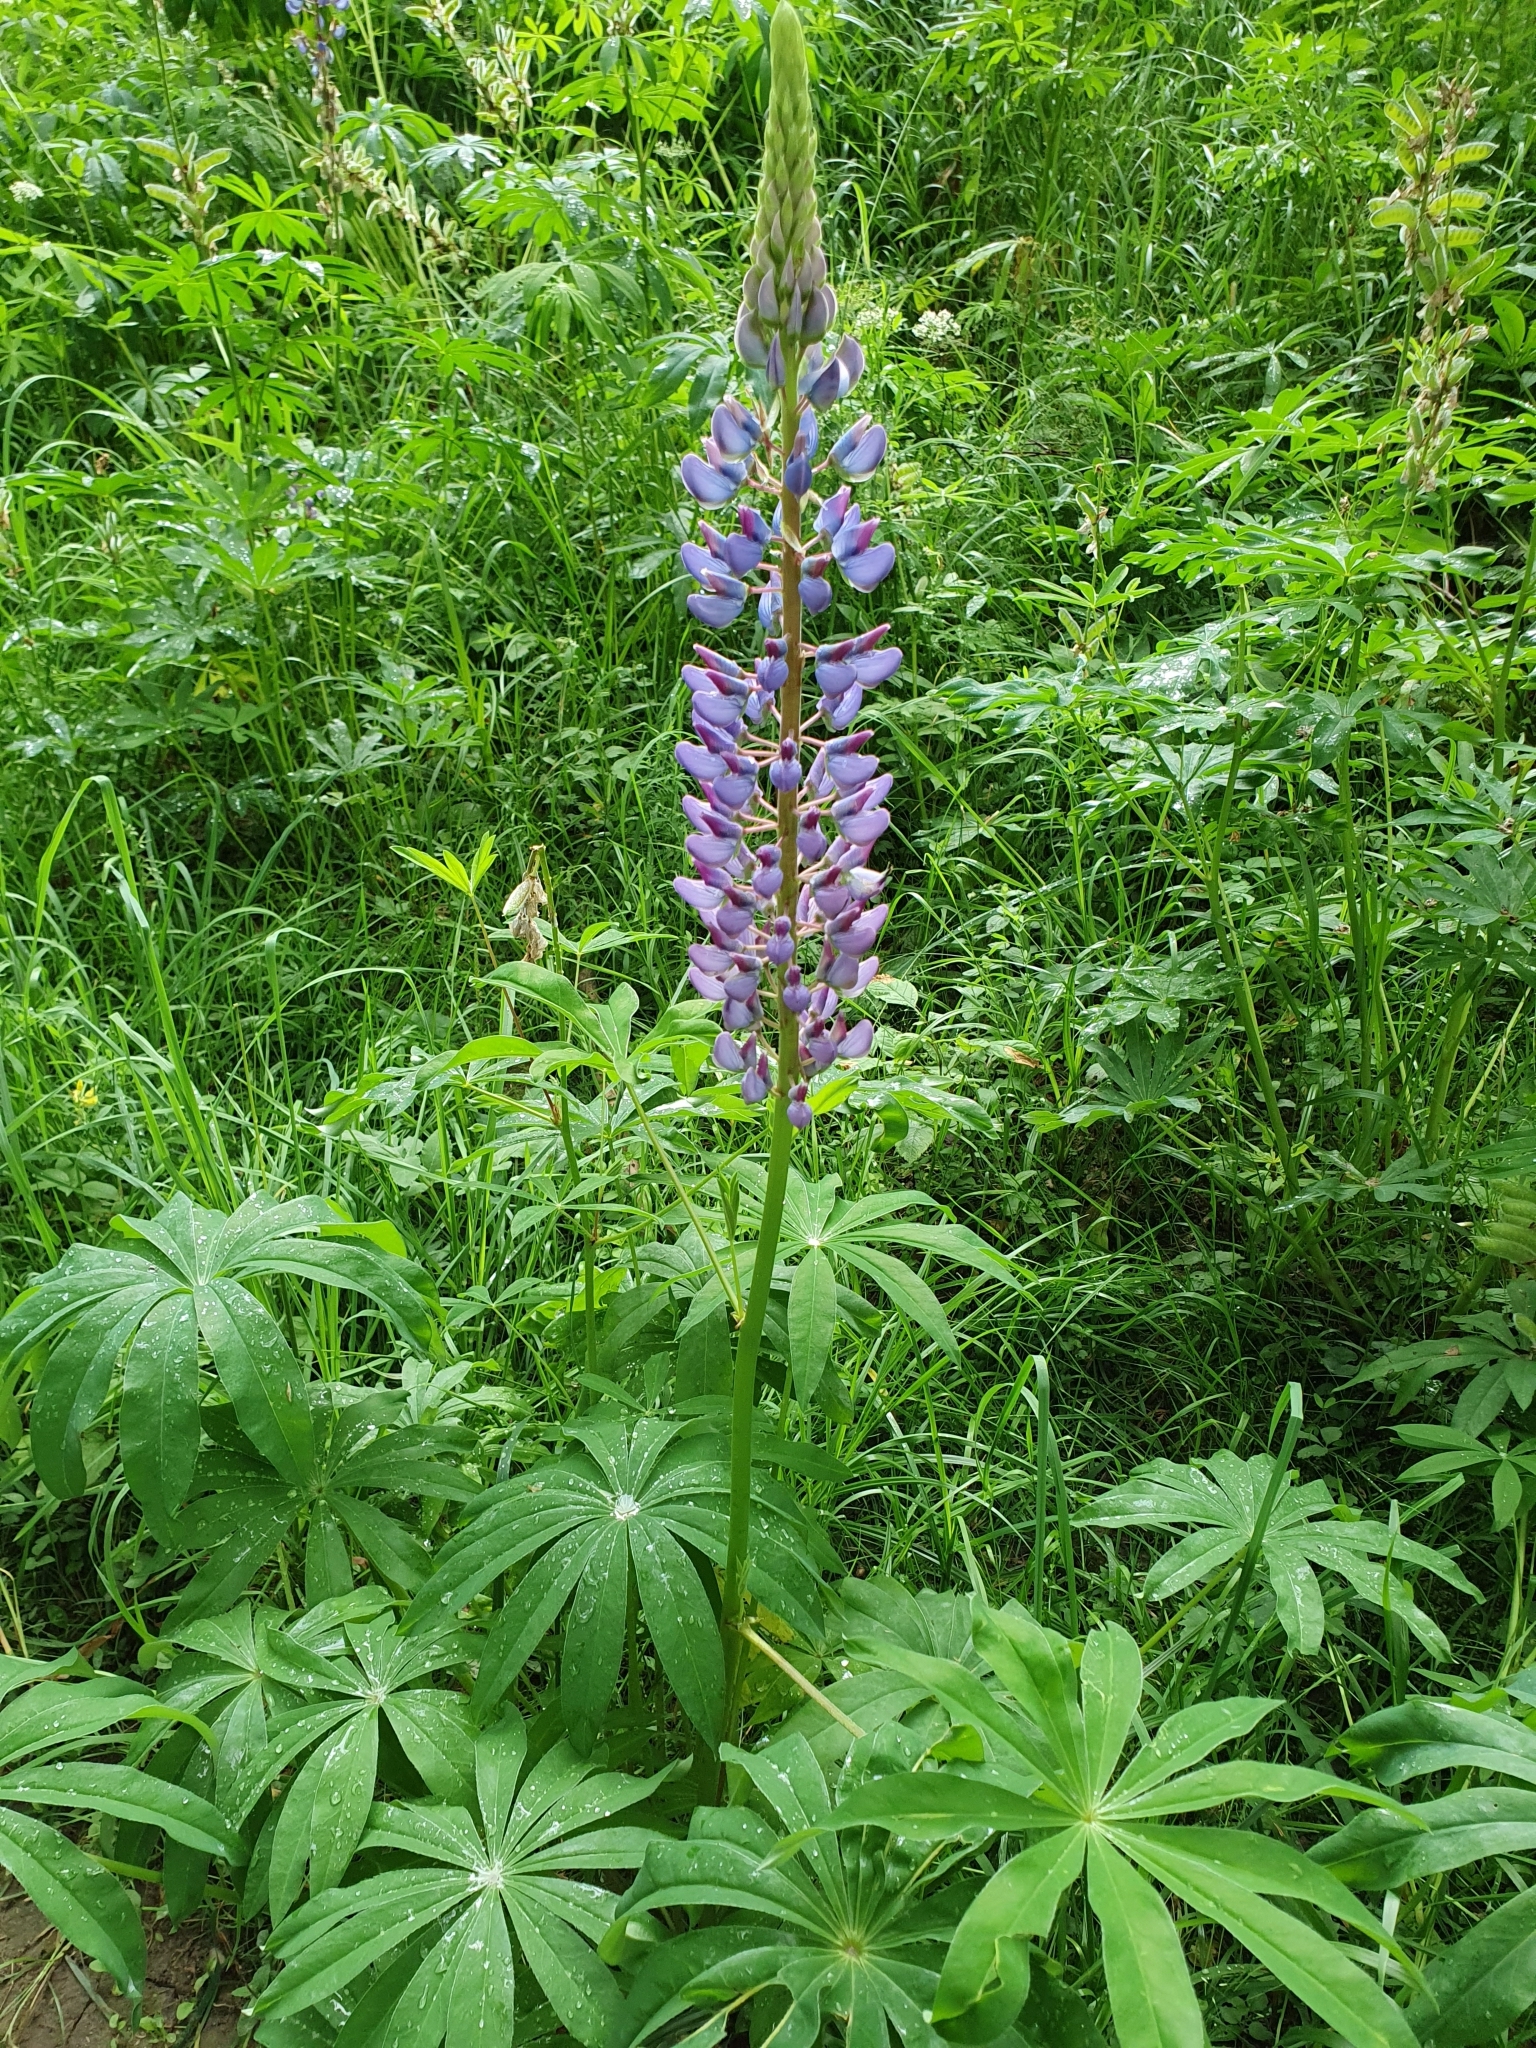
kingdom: Plantae
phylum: Tracheophyta
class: Magnoliopsida
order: Fabales
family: Fabaceae
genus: Lupinus
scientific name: Lupinus polyphyllus
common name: Garden lupin
